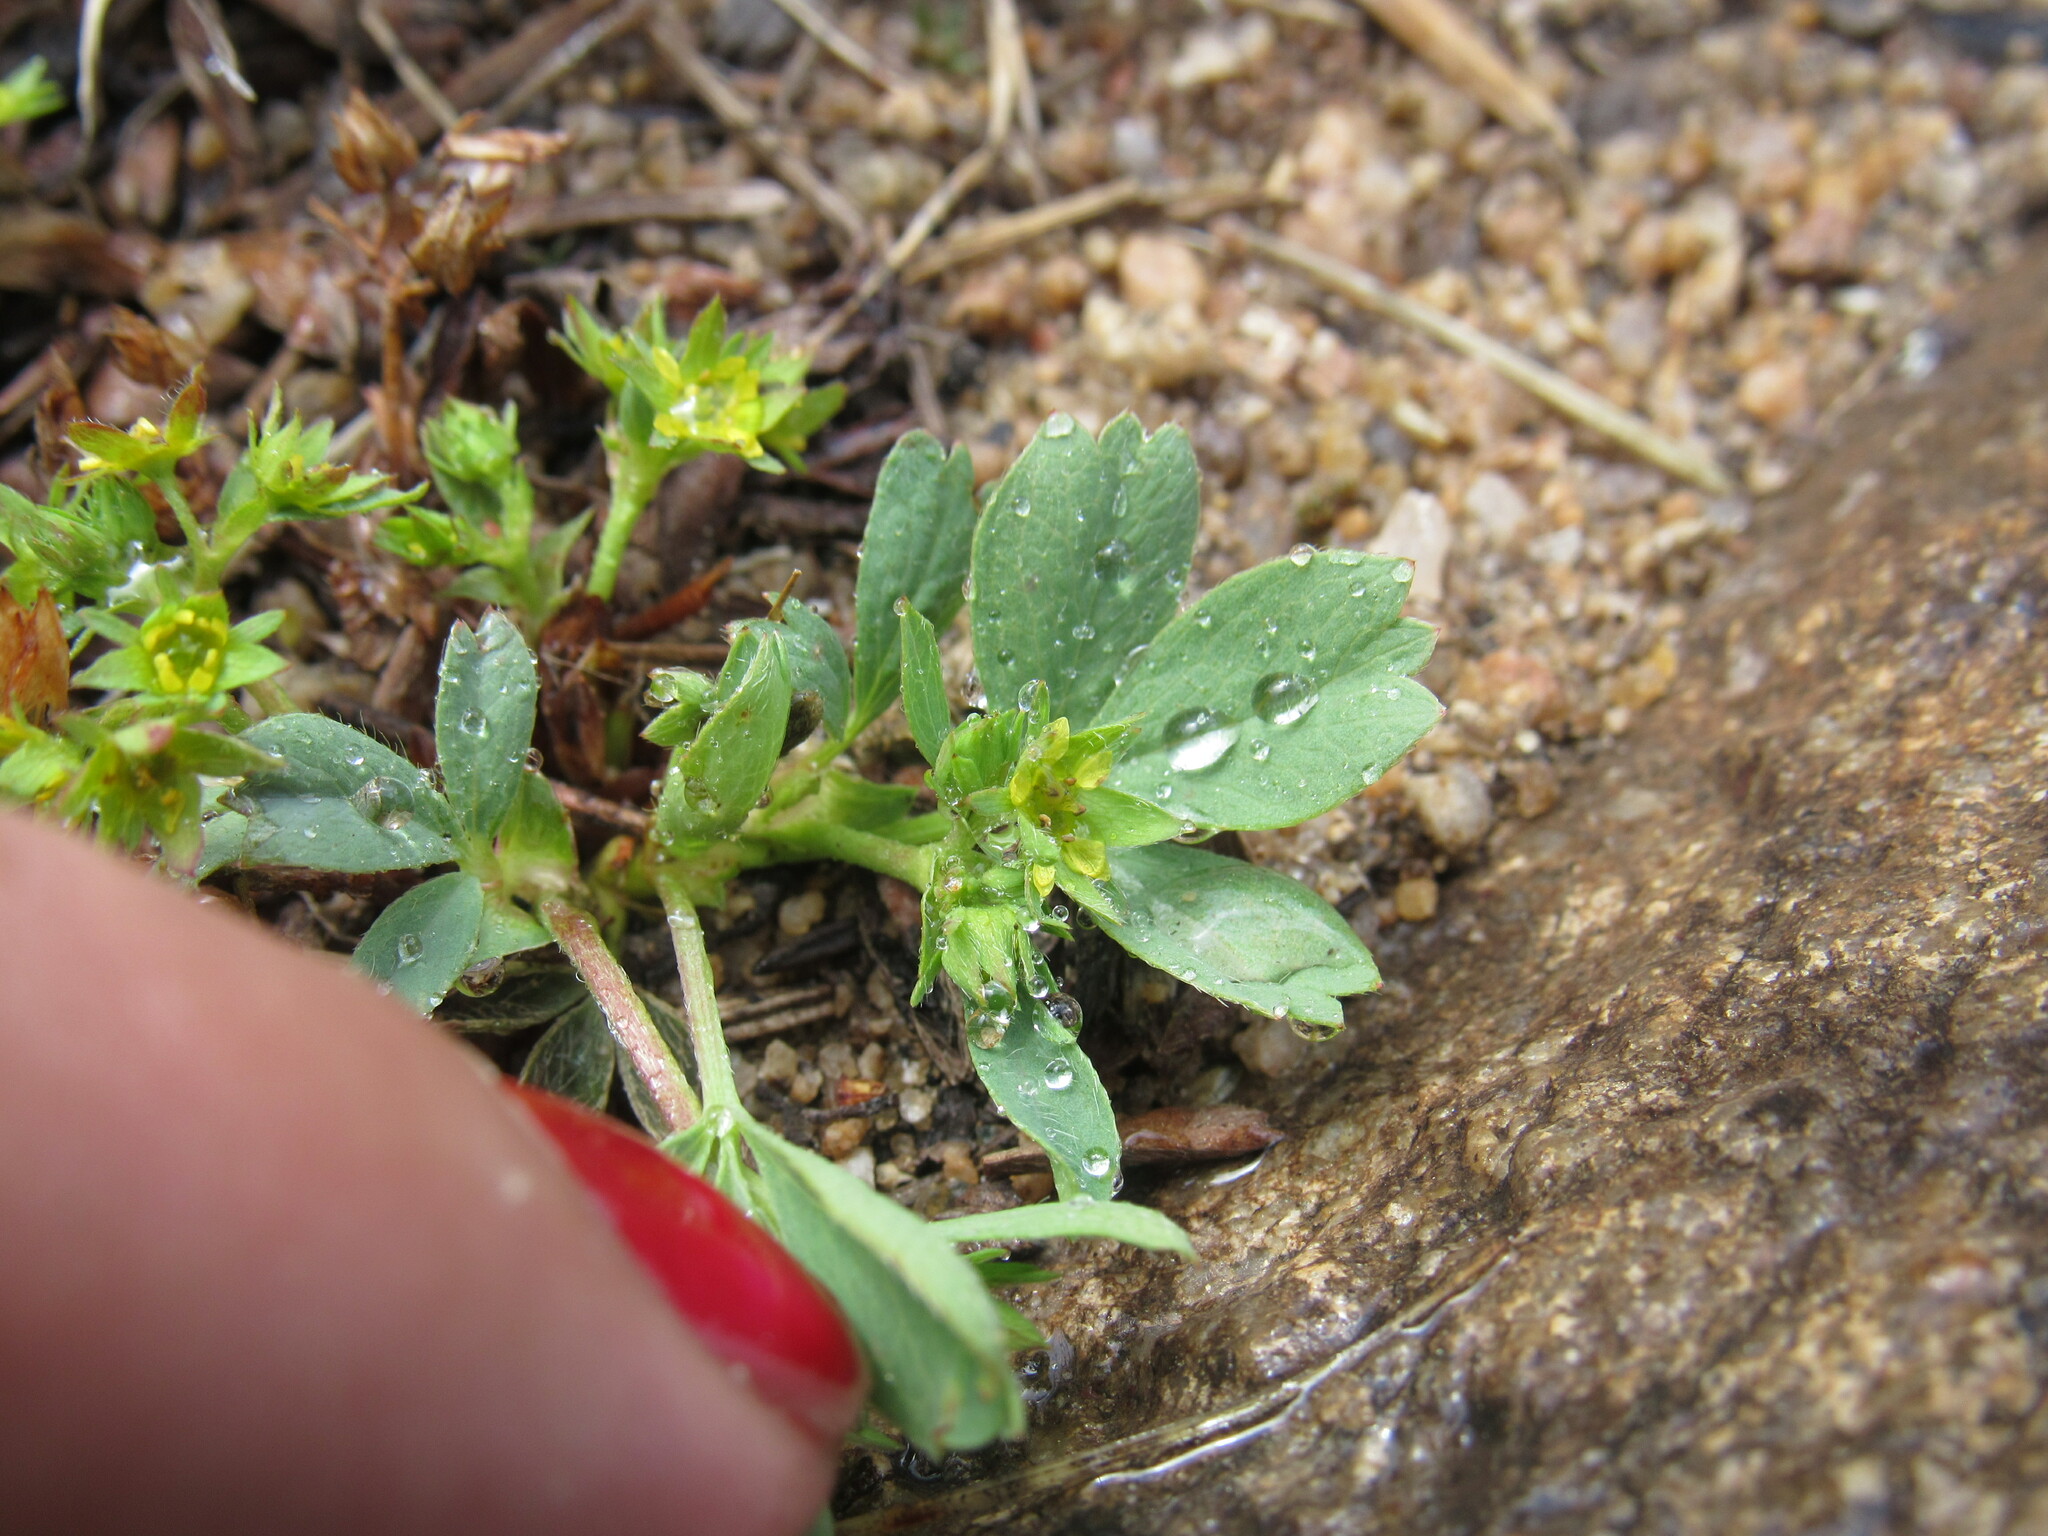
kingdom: Plantae
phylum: Tracheophyta
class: Magnoliopsida
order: Rosales
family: Rosaceae
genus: Sibbaldia
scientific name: Sibbaldia procumbens
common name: Creeping sibbaldia
